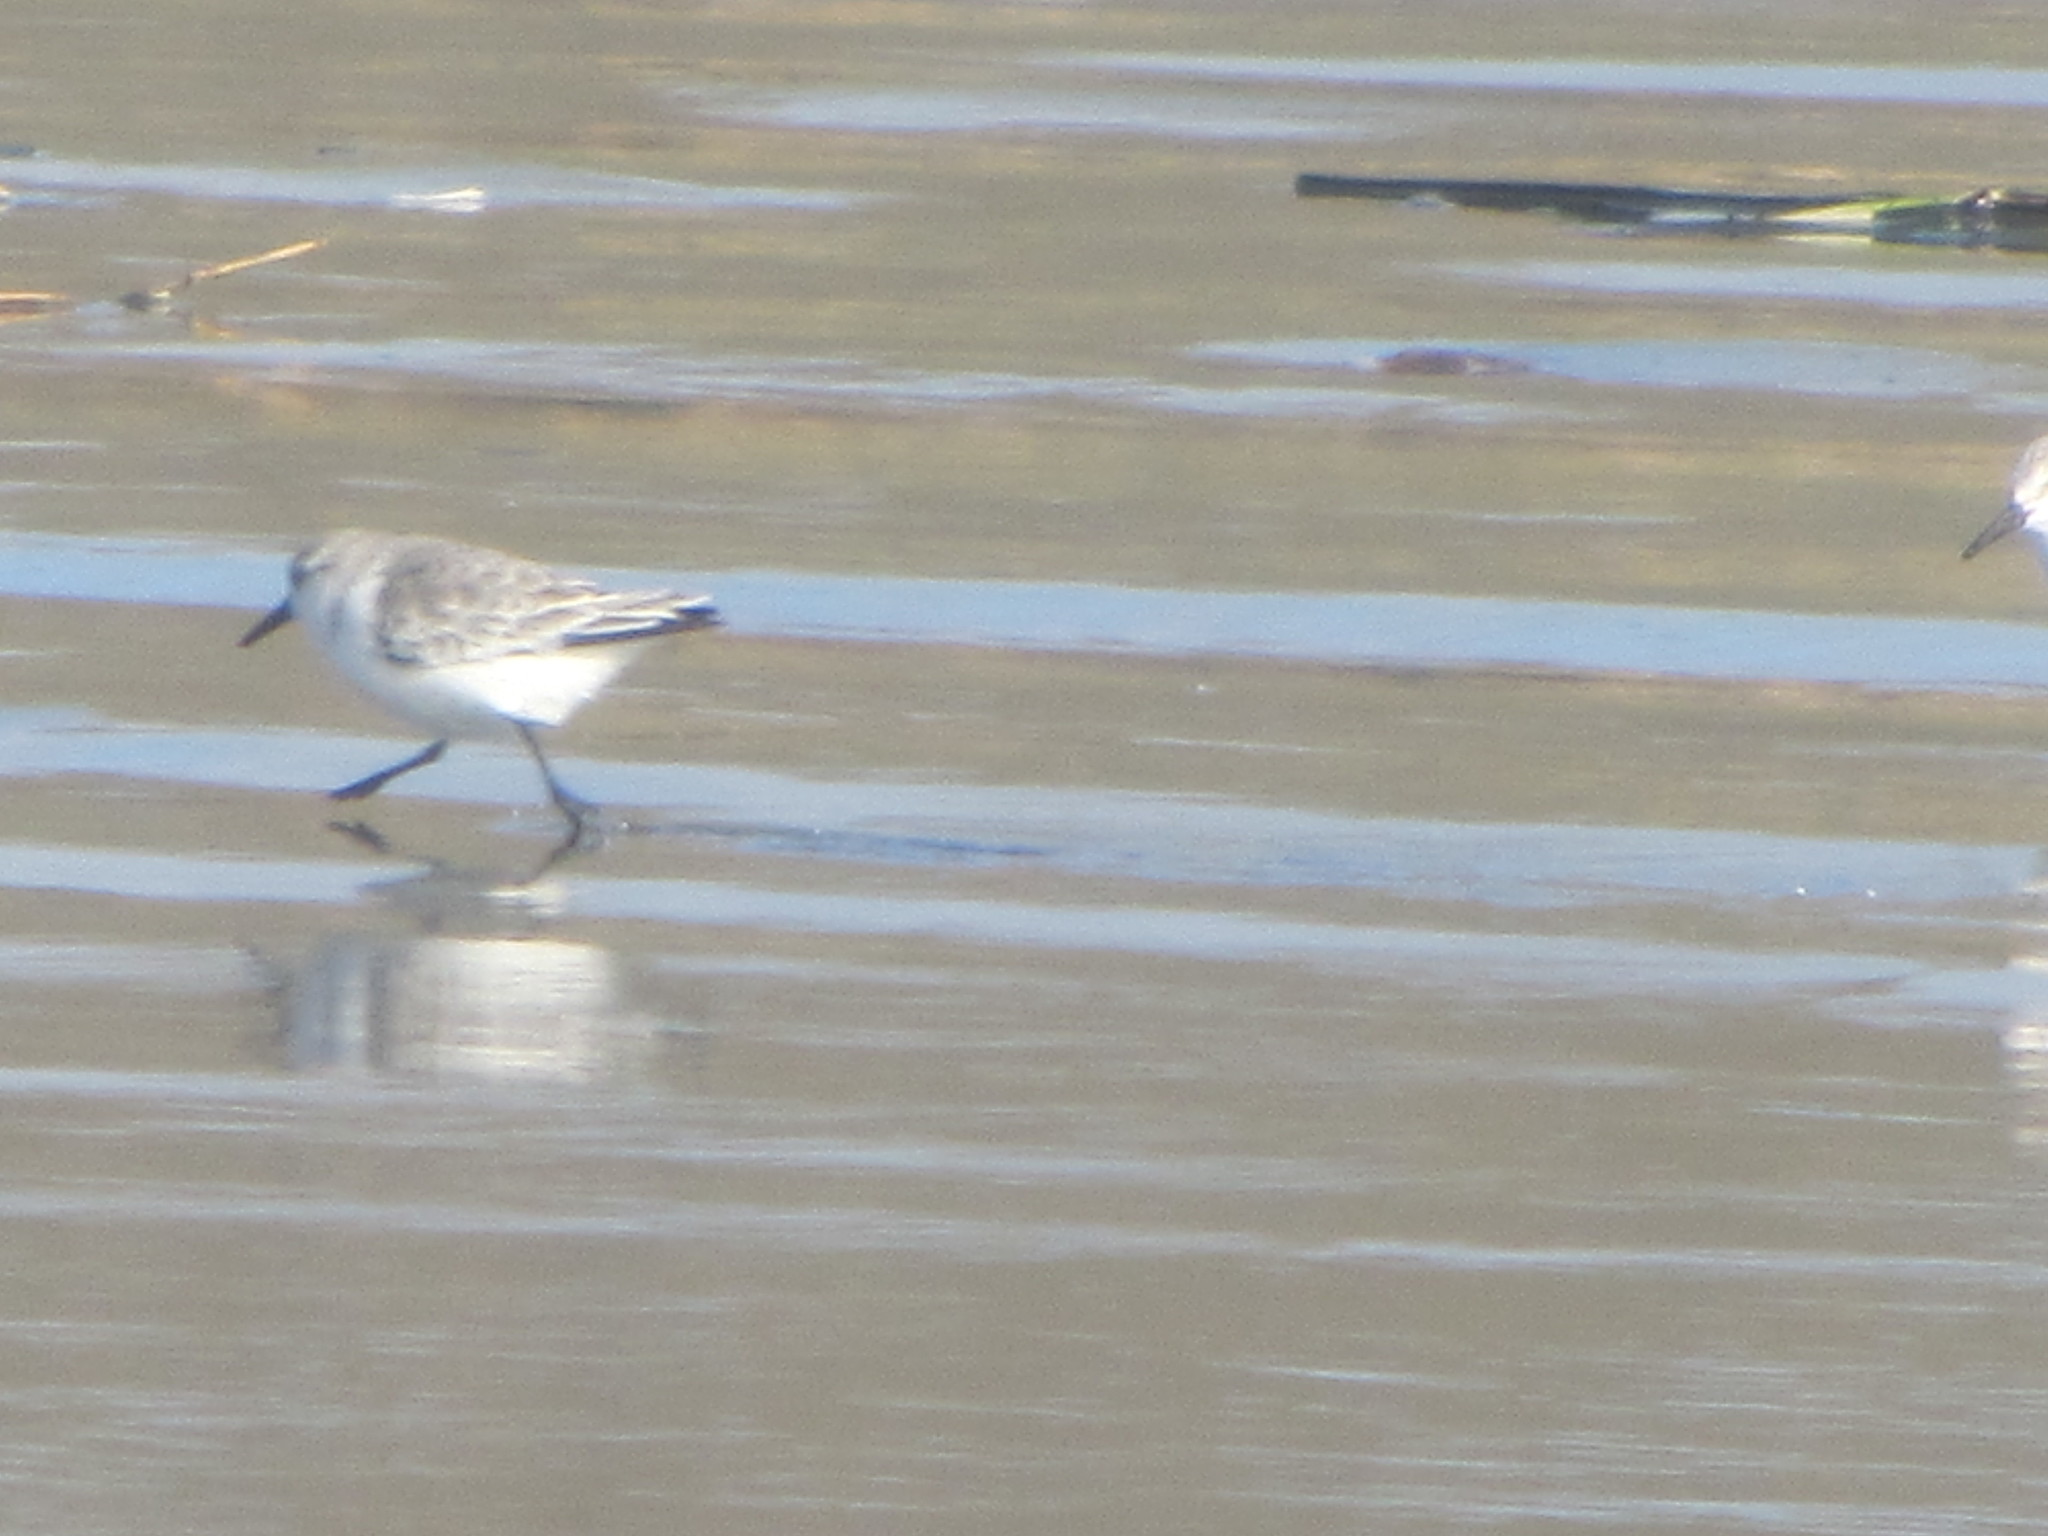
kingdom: Animalia
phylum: Chordata
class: Aves
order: Charadriiformes
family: Scolopacidae
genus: Calidris
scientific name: Calidris alba
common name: Sanderling
